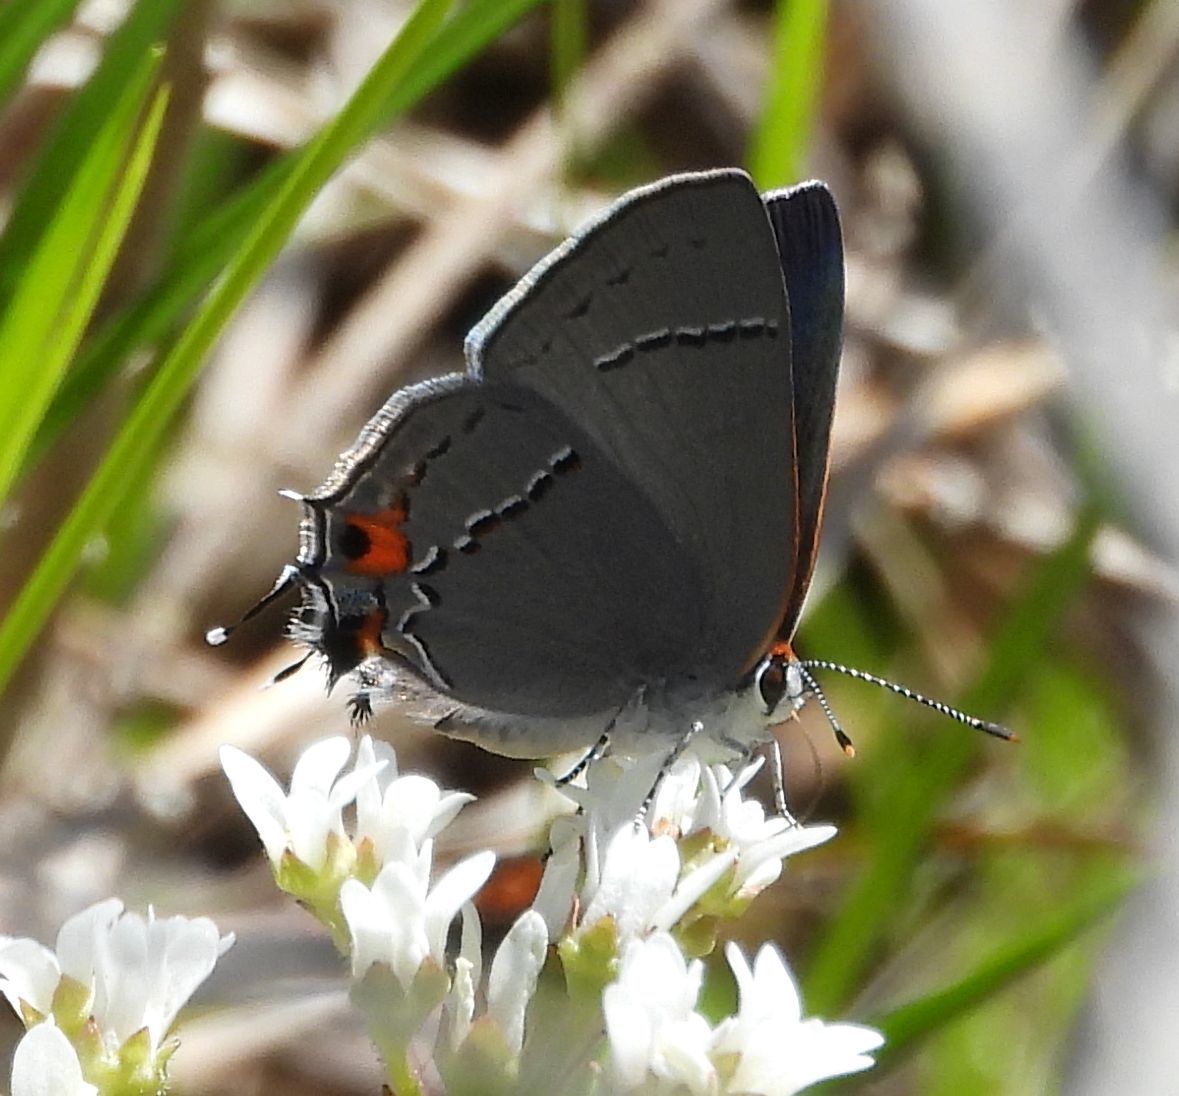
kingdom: Animalia
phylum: Arthropoda
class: Insecta
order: Lepidoptera
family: Lycaenidae
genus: Strymon
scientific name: Strymon melinus
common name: Gray hairstreak
